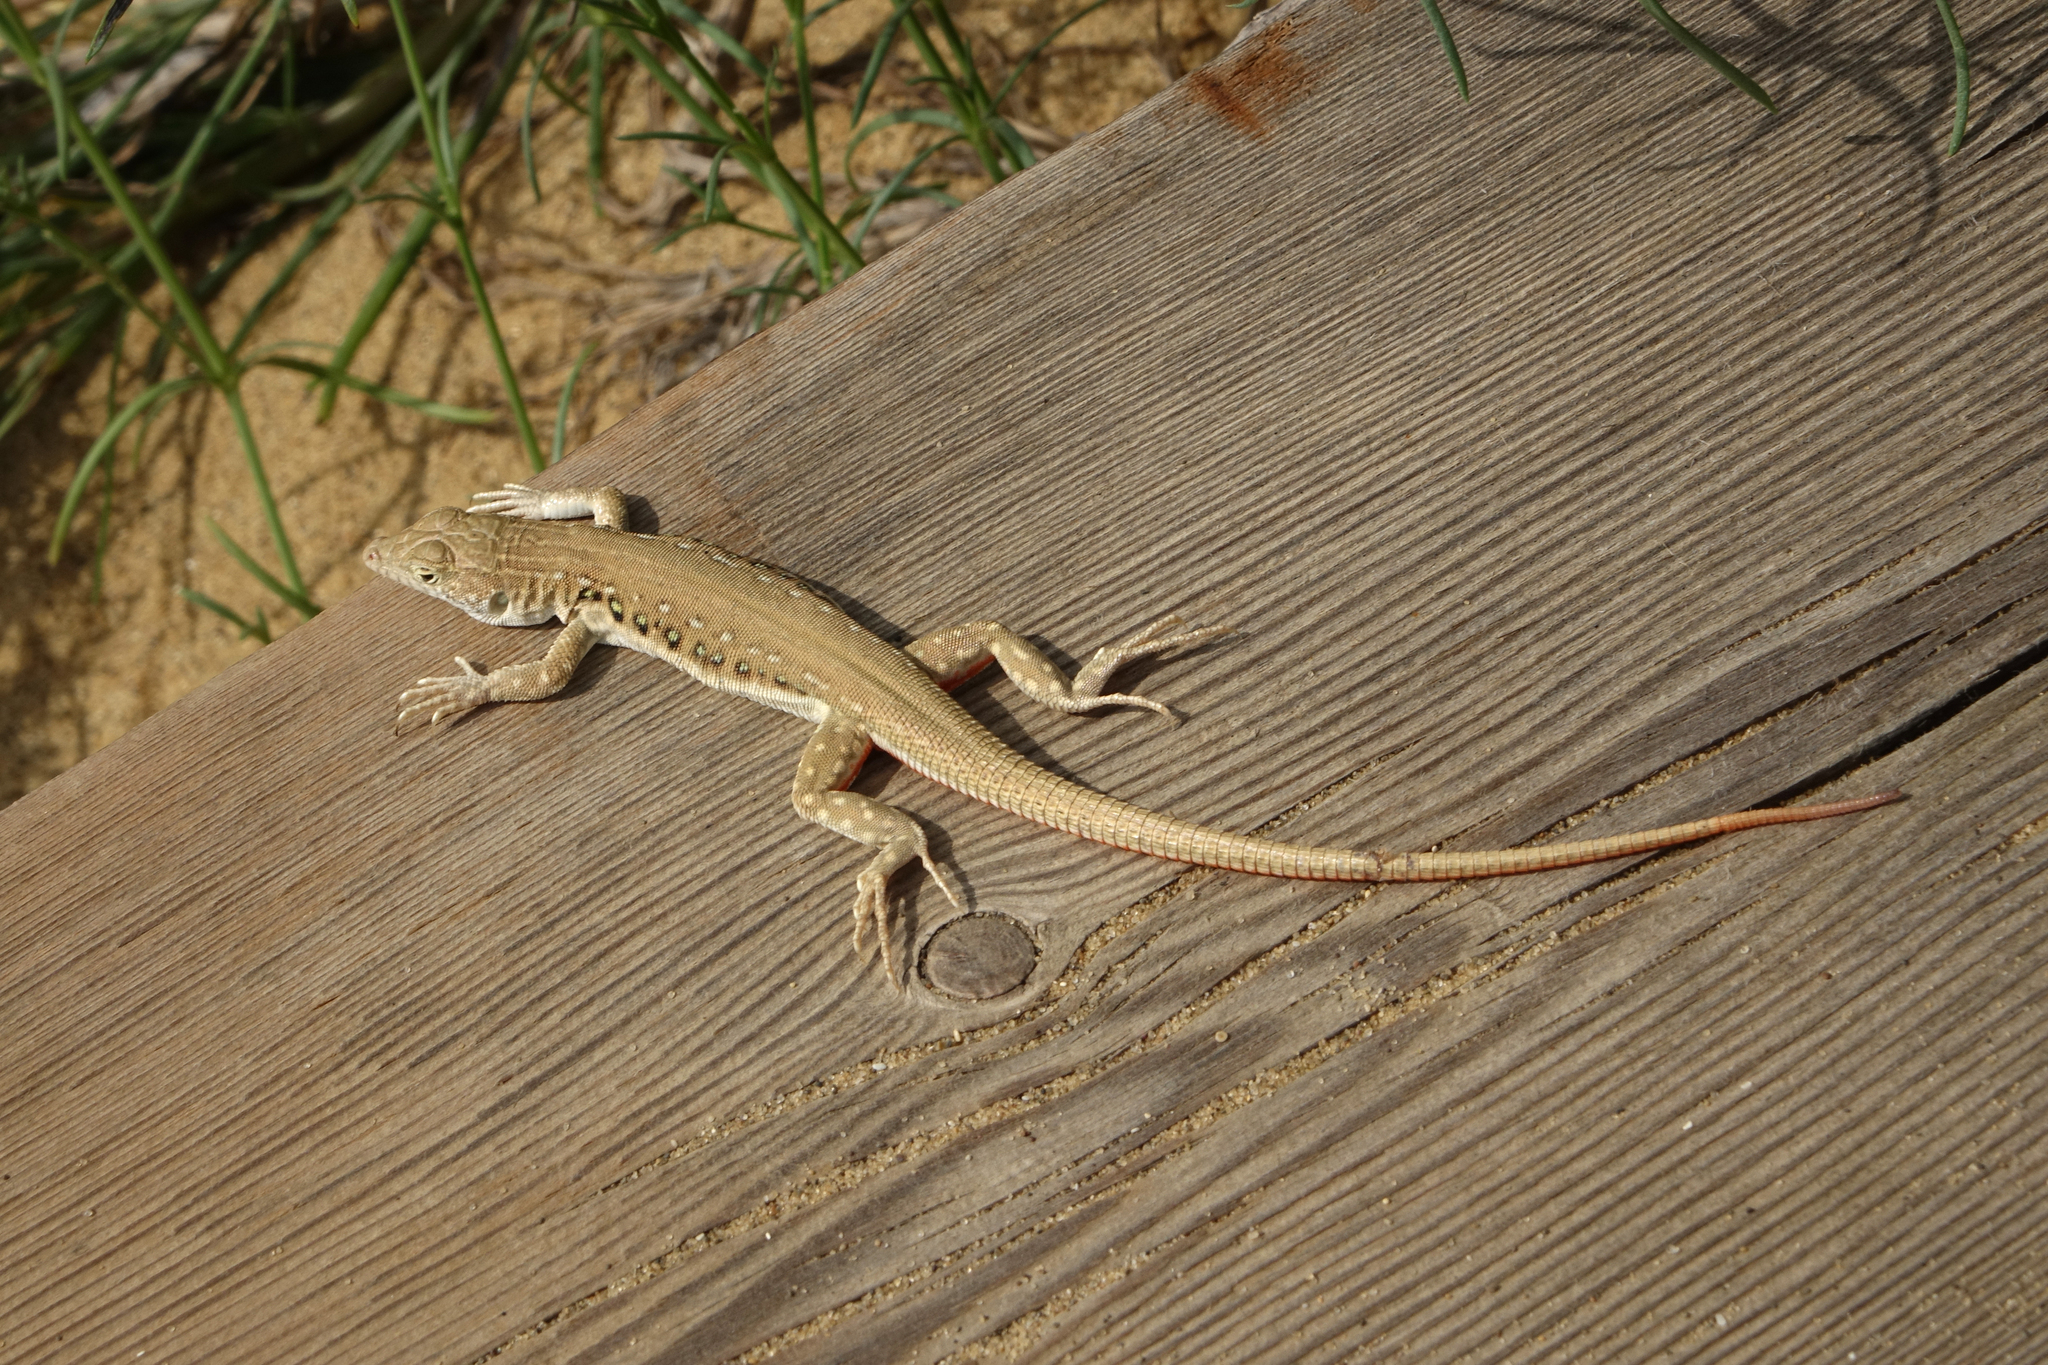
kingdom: Animalia
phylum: Chordata
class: Squamata
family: Lacertidae
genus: Eremias
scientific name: Eremias velox
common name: Central asian racerunner
